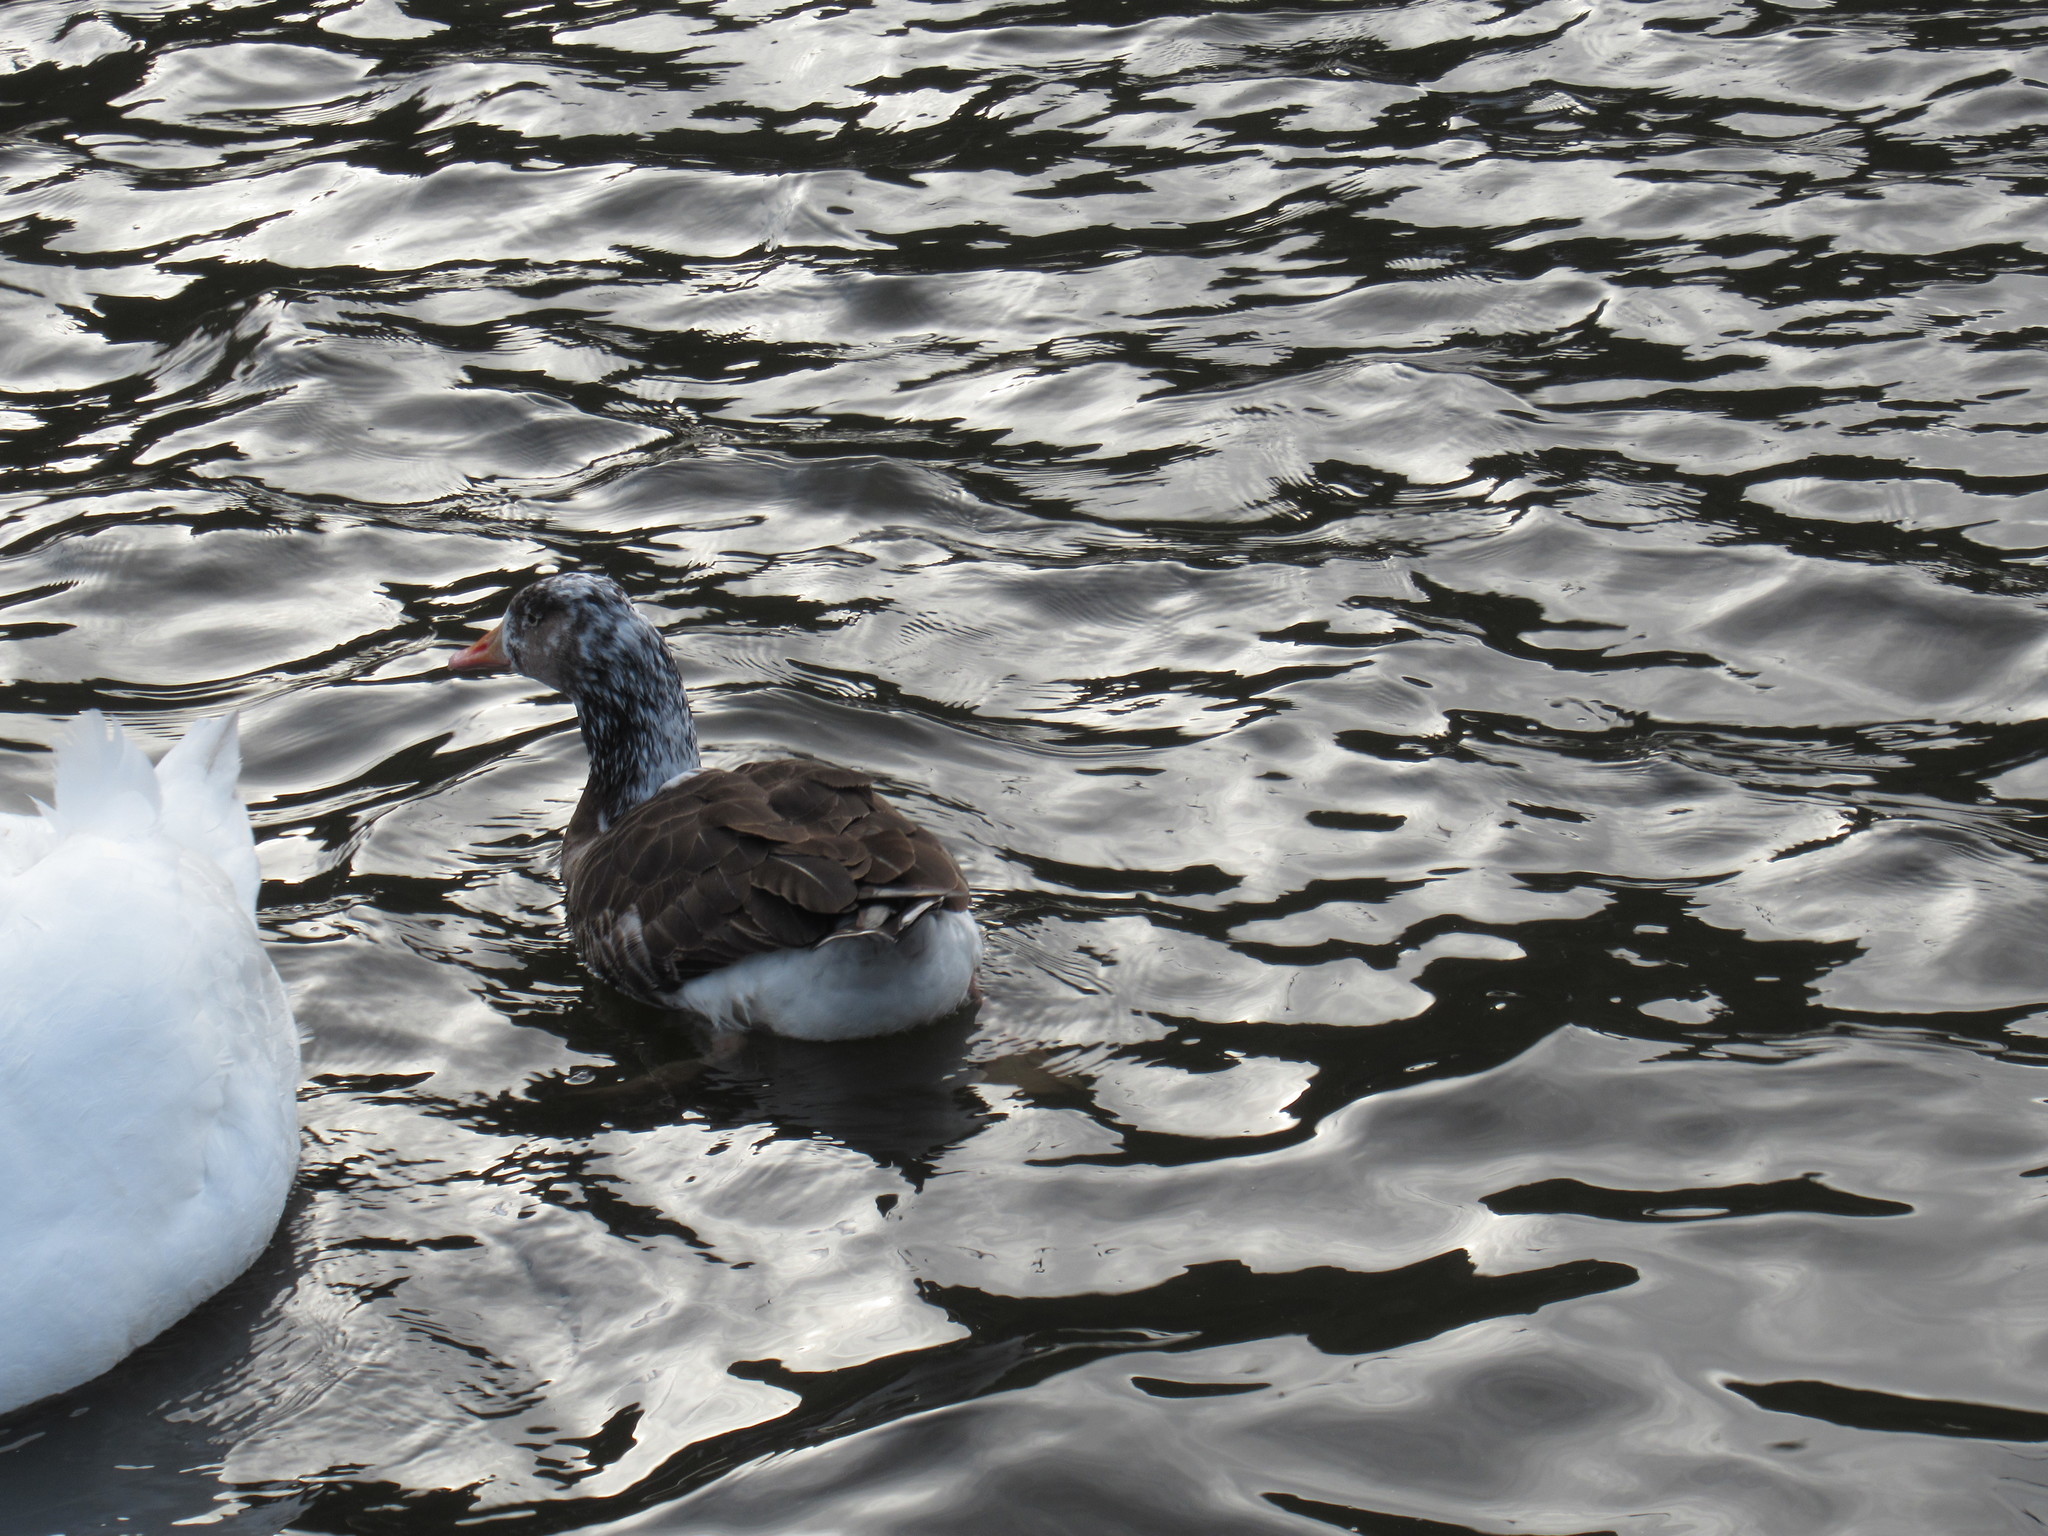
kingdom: Animalia
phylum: Chordata
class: Aves
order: Anseriformes
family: Anatidae
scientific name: Anatidae
